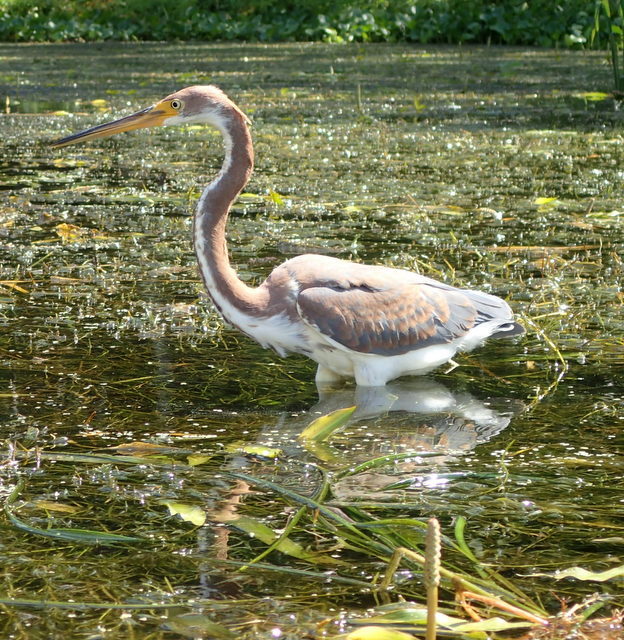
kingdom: Animalia
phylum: Chordata
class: Aves
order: Pelecaniformes
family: Ardeidae
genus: Egretta
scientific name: Egretta tricolor
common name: Tricolored heron
